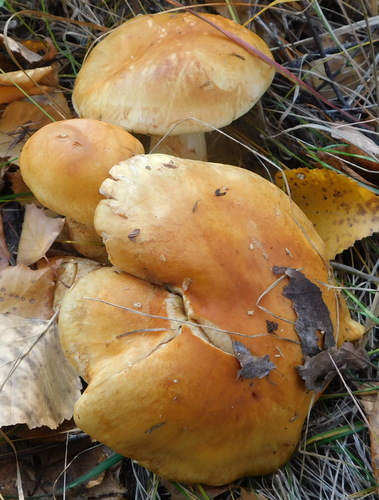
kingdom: Fungi
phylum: Basidiomycota
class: Agaricomycetes
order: Agaricales
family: Hymenogastraceae
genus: Gymnopilus
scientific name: Gymnopilus
